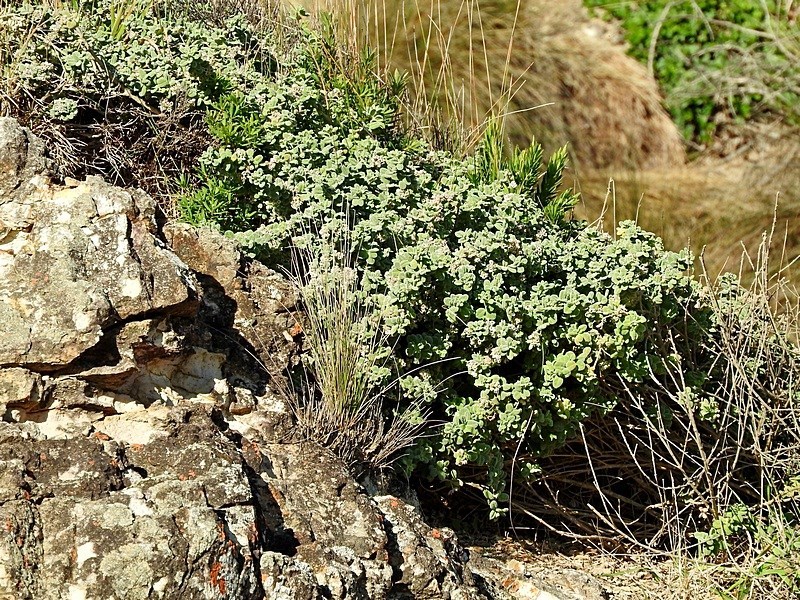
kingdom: Plantae
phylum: Tracheophyta
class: Magnoliopsida
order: Sapindales
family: Rutaceae
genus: Zieria
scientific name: Zieria littoralis
